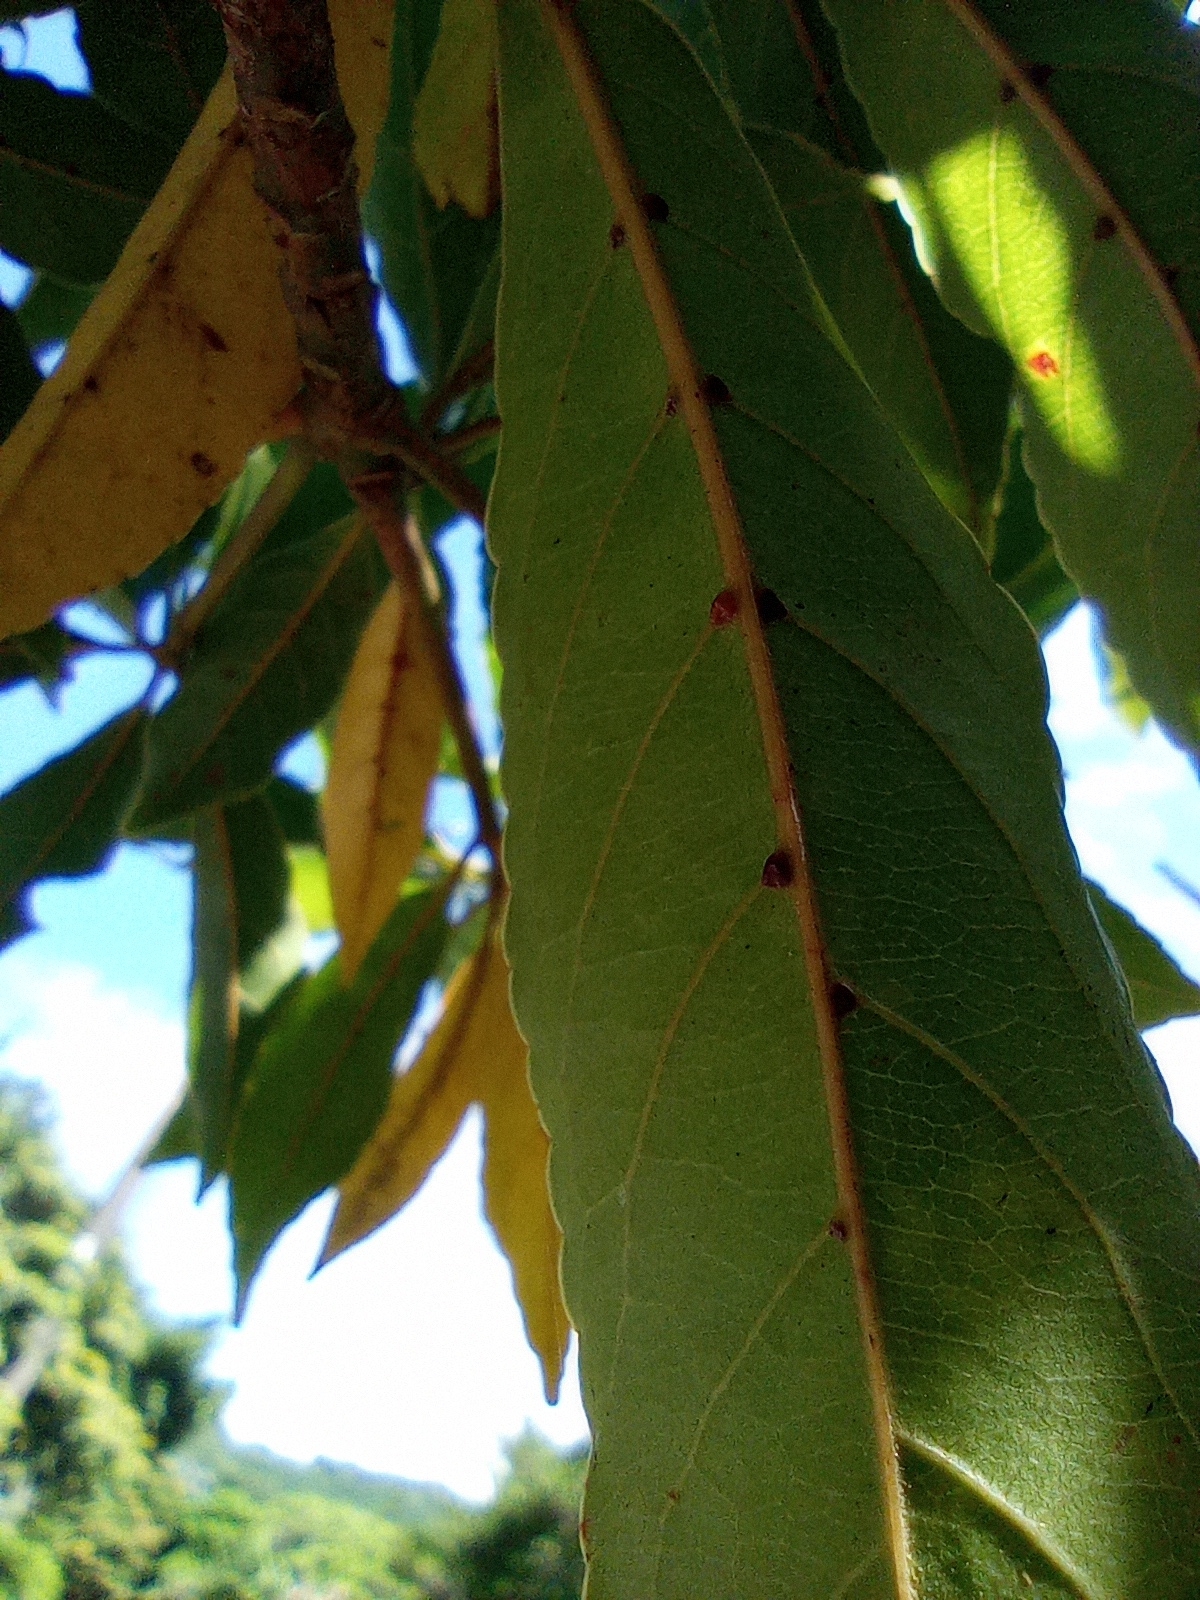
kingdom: Plantae
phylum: Tracheophyta
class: Magnoliopsida
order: Oxalidales
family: Elaeocarpaceae
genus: Elaeocarpus
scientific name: Elaeocarpus argenteus
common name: Flowering plant
